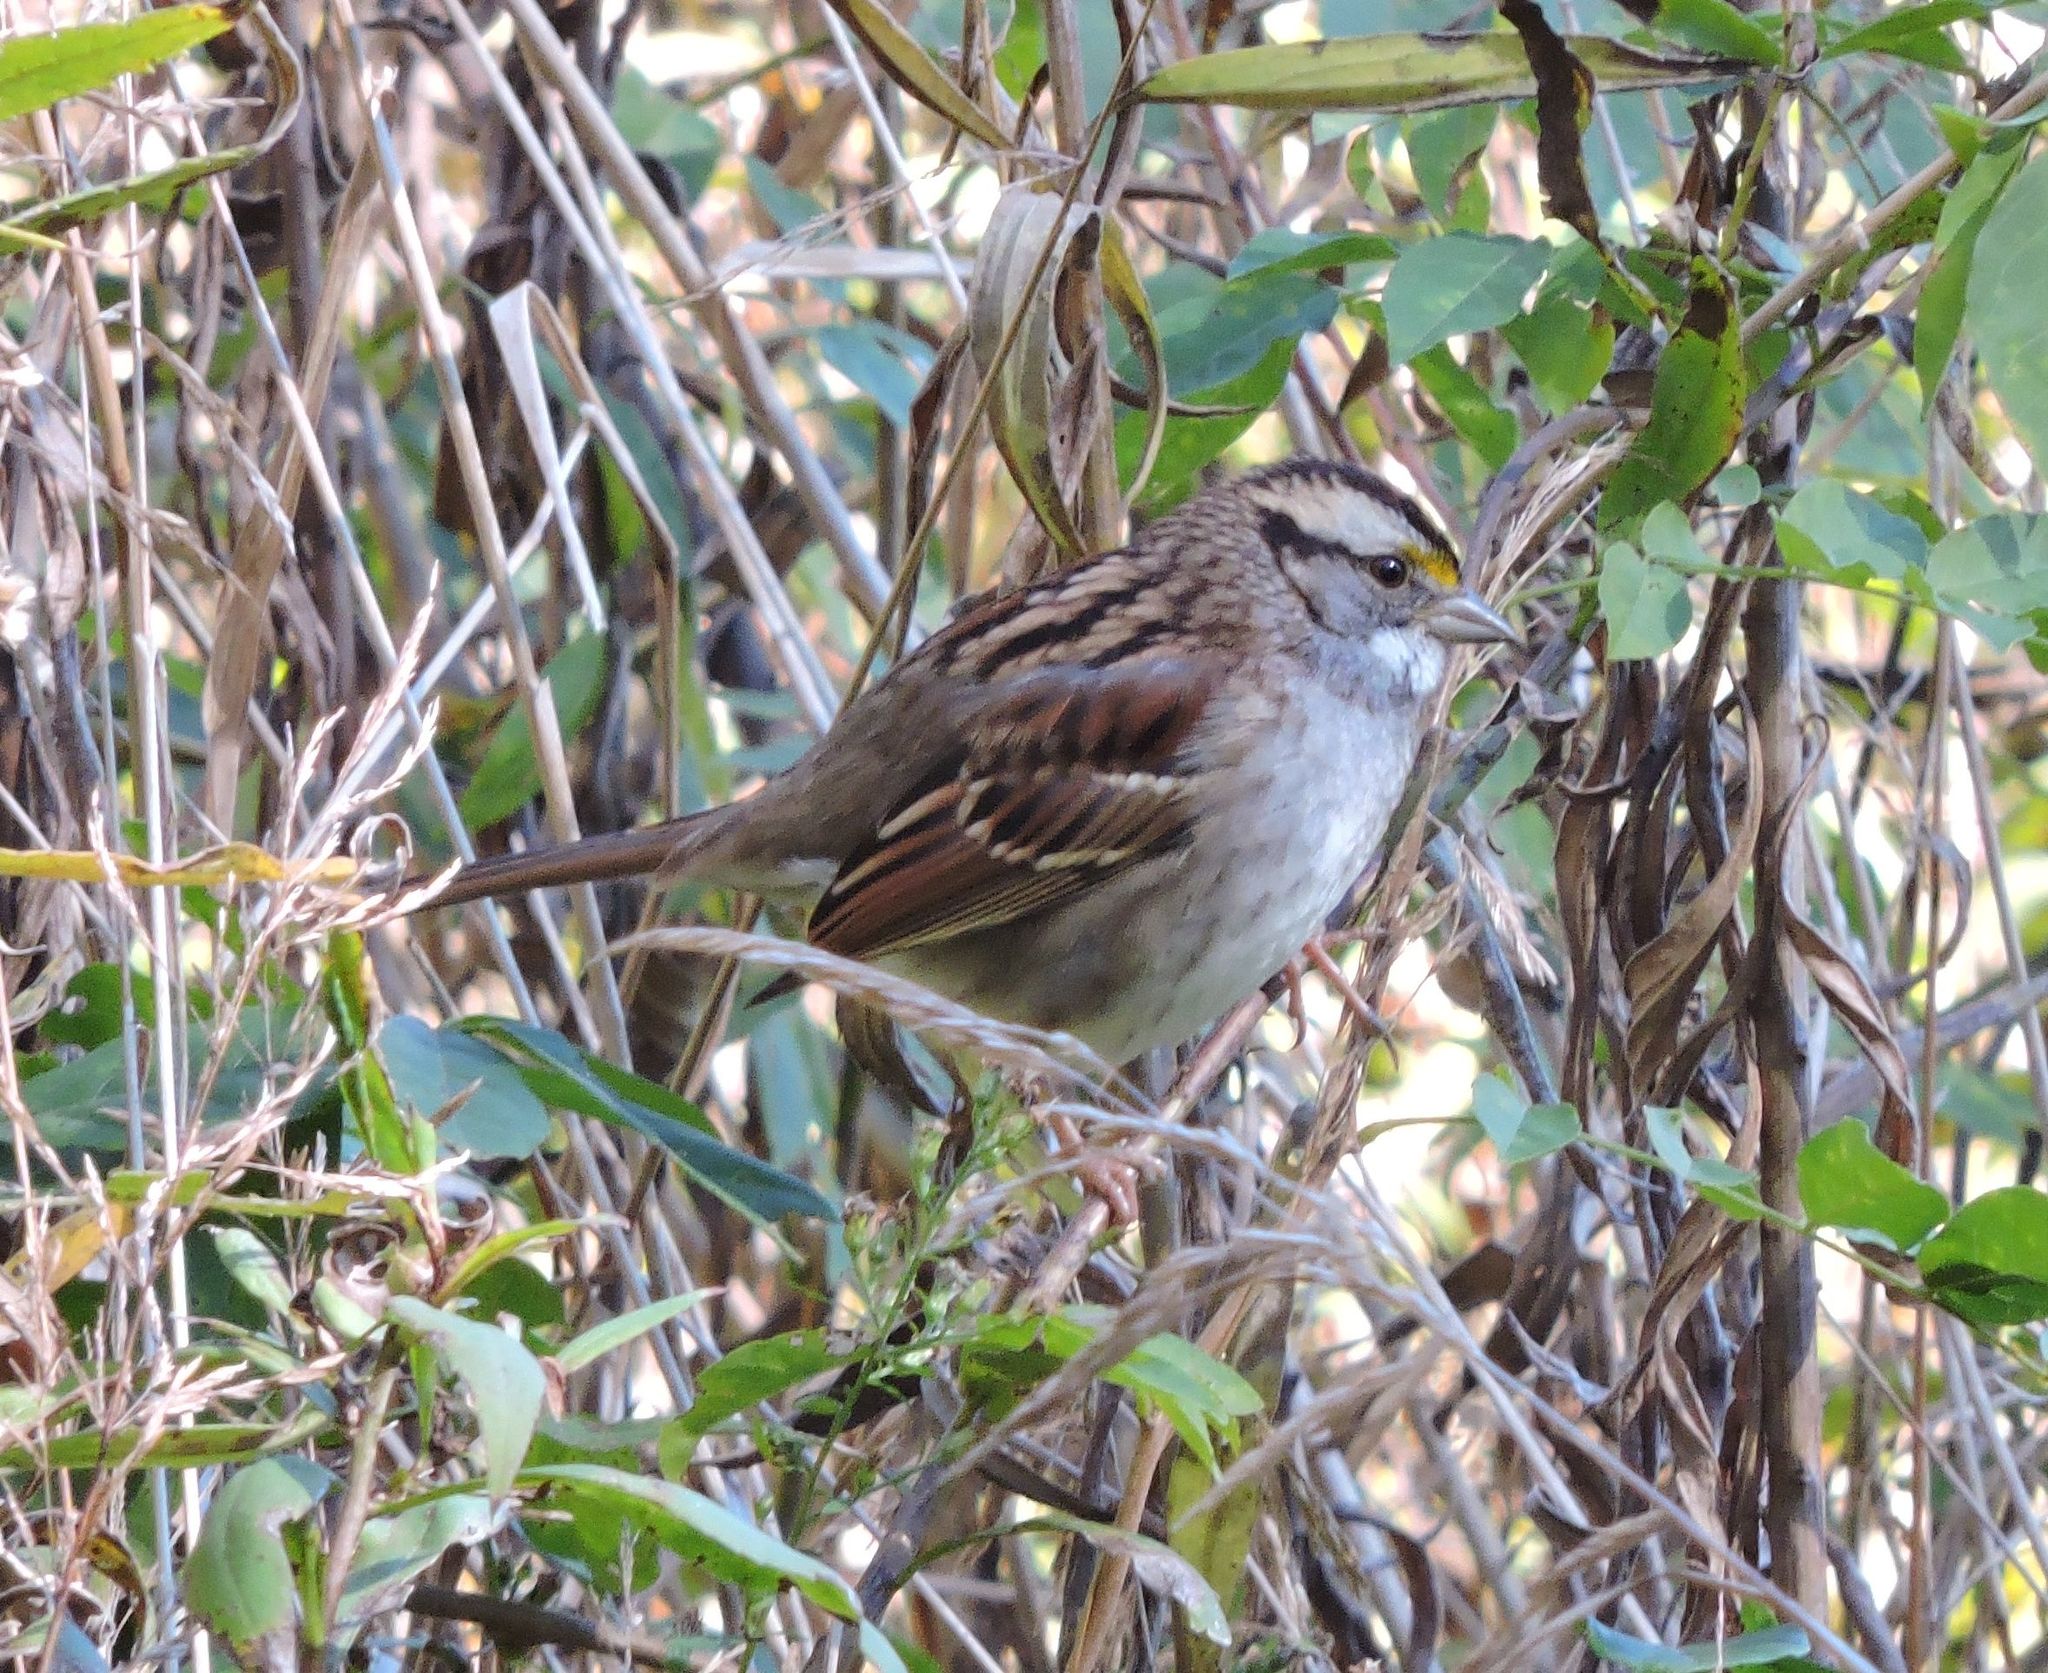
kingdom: Animalia
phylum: Chordata
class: Aves
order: Passeriformes
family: Passerellidae
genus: Zonotrichia
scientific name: Zonotrichia albicollis
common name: White-throated sparrow
